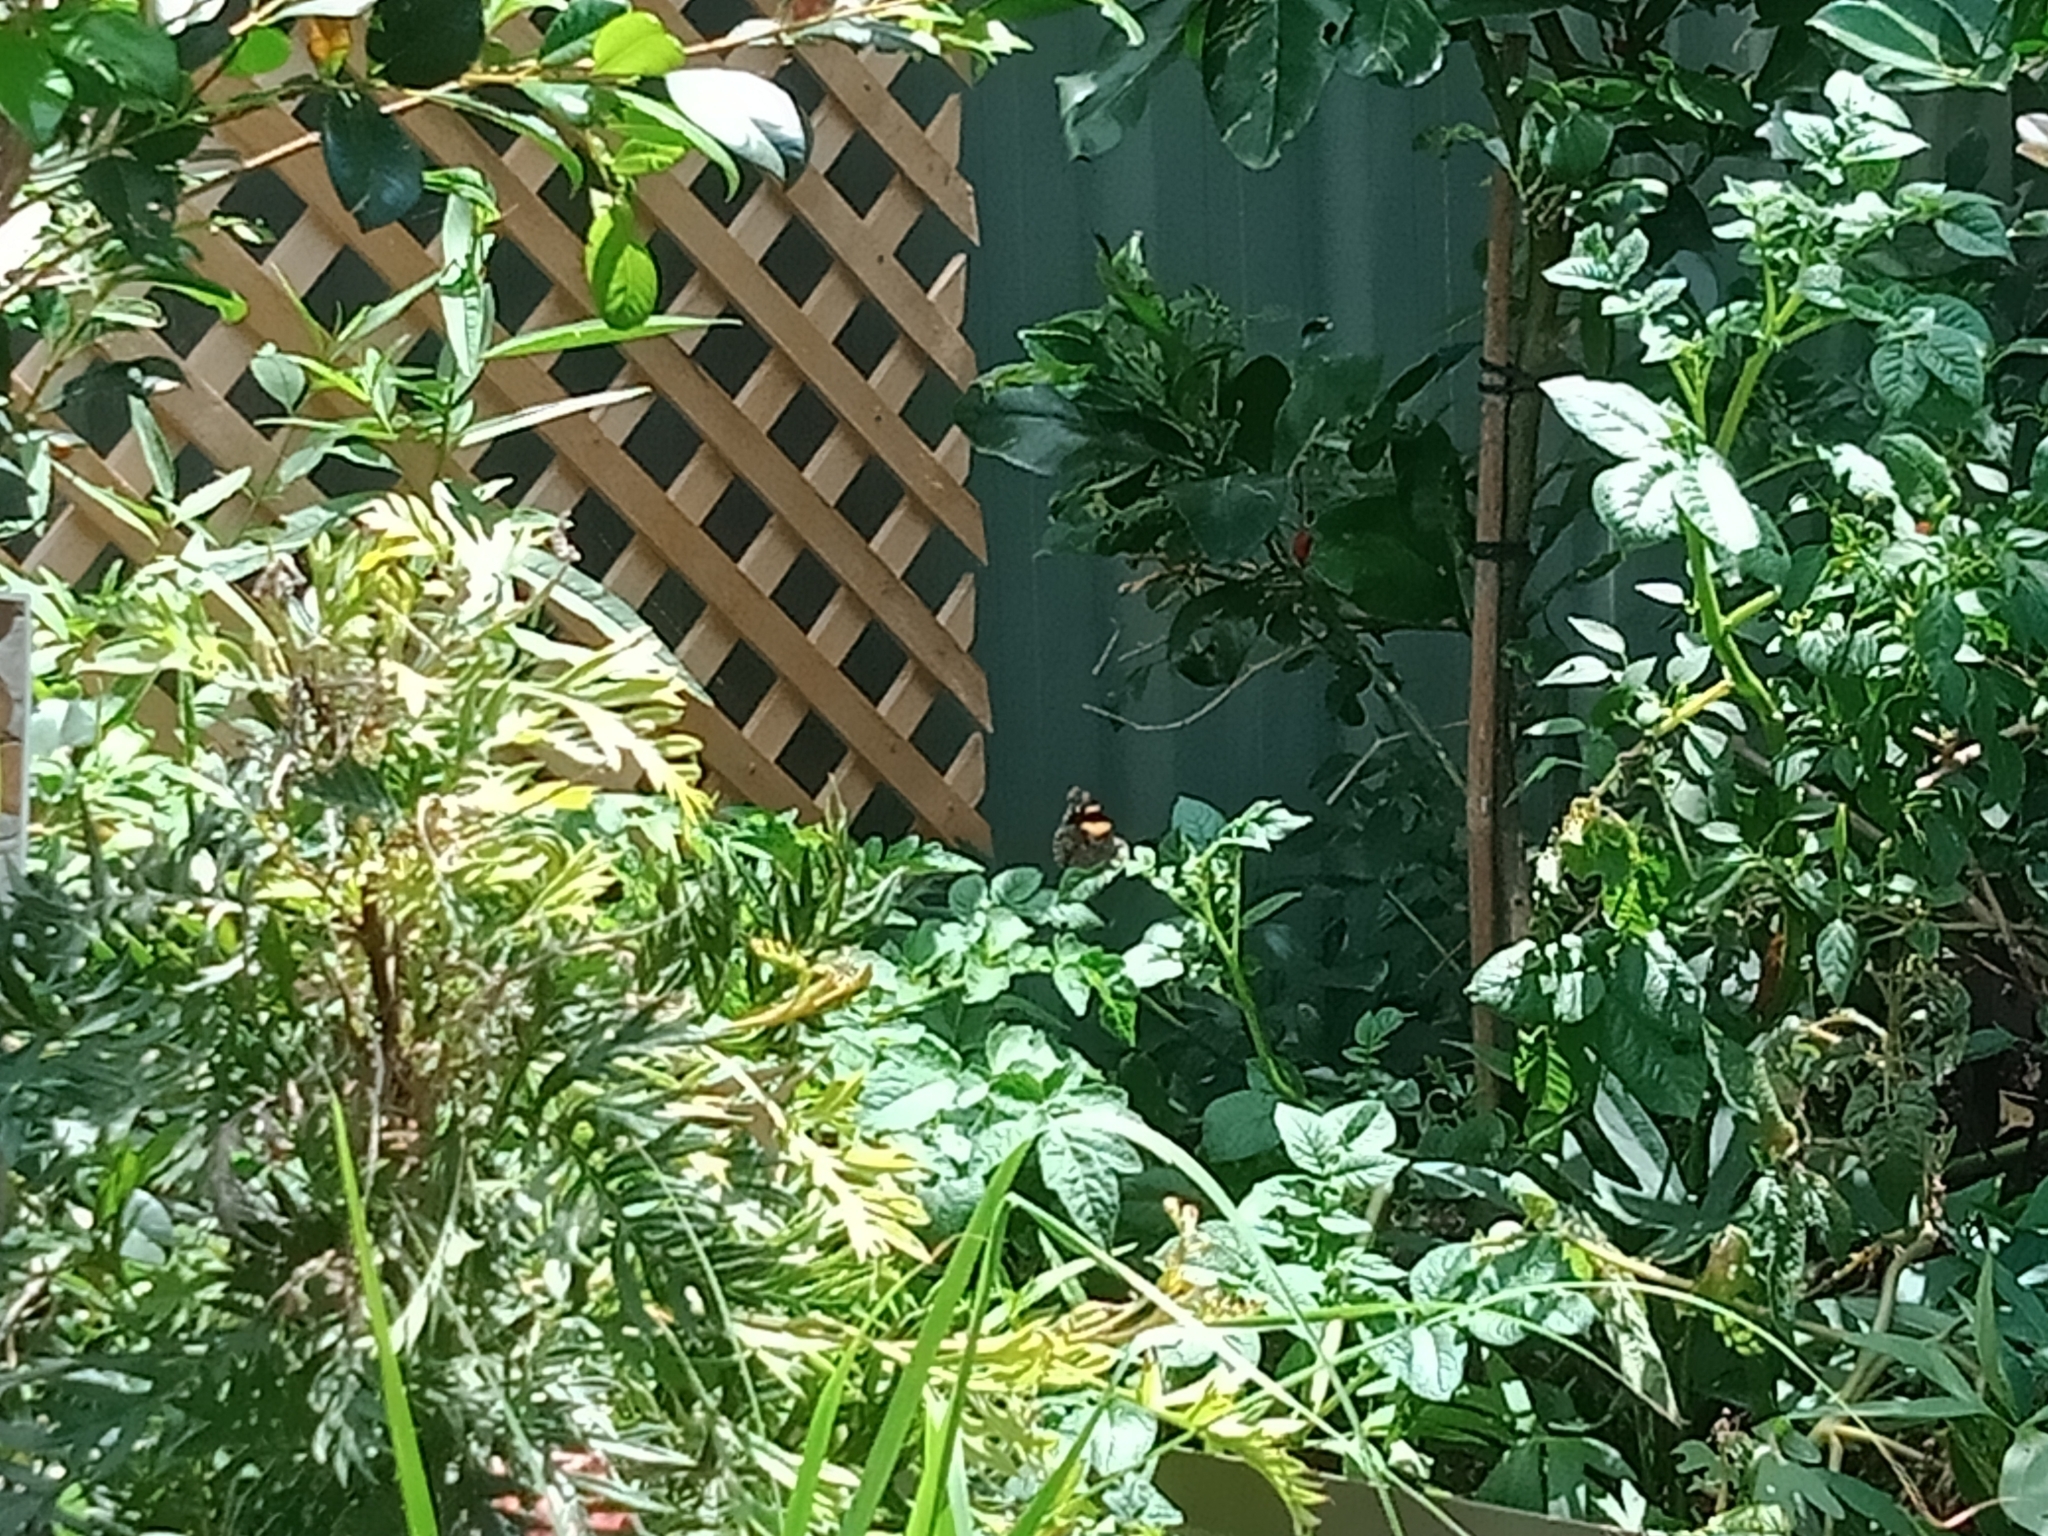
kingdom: Animalia
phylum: Arthropoda
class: Insecta
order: Lepidoptera
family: Nymphalidae
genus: Vanessa
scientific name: Vanessa itea
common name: Yellow admiral
